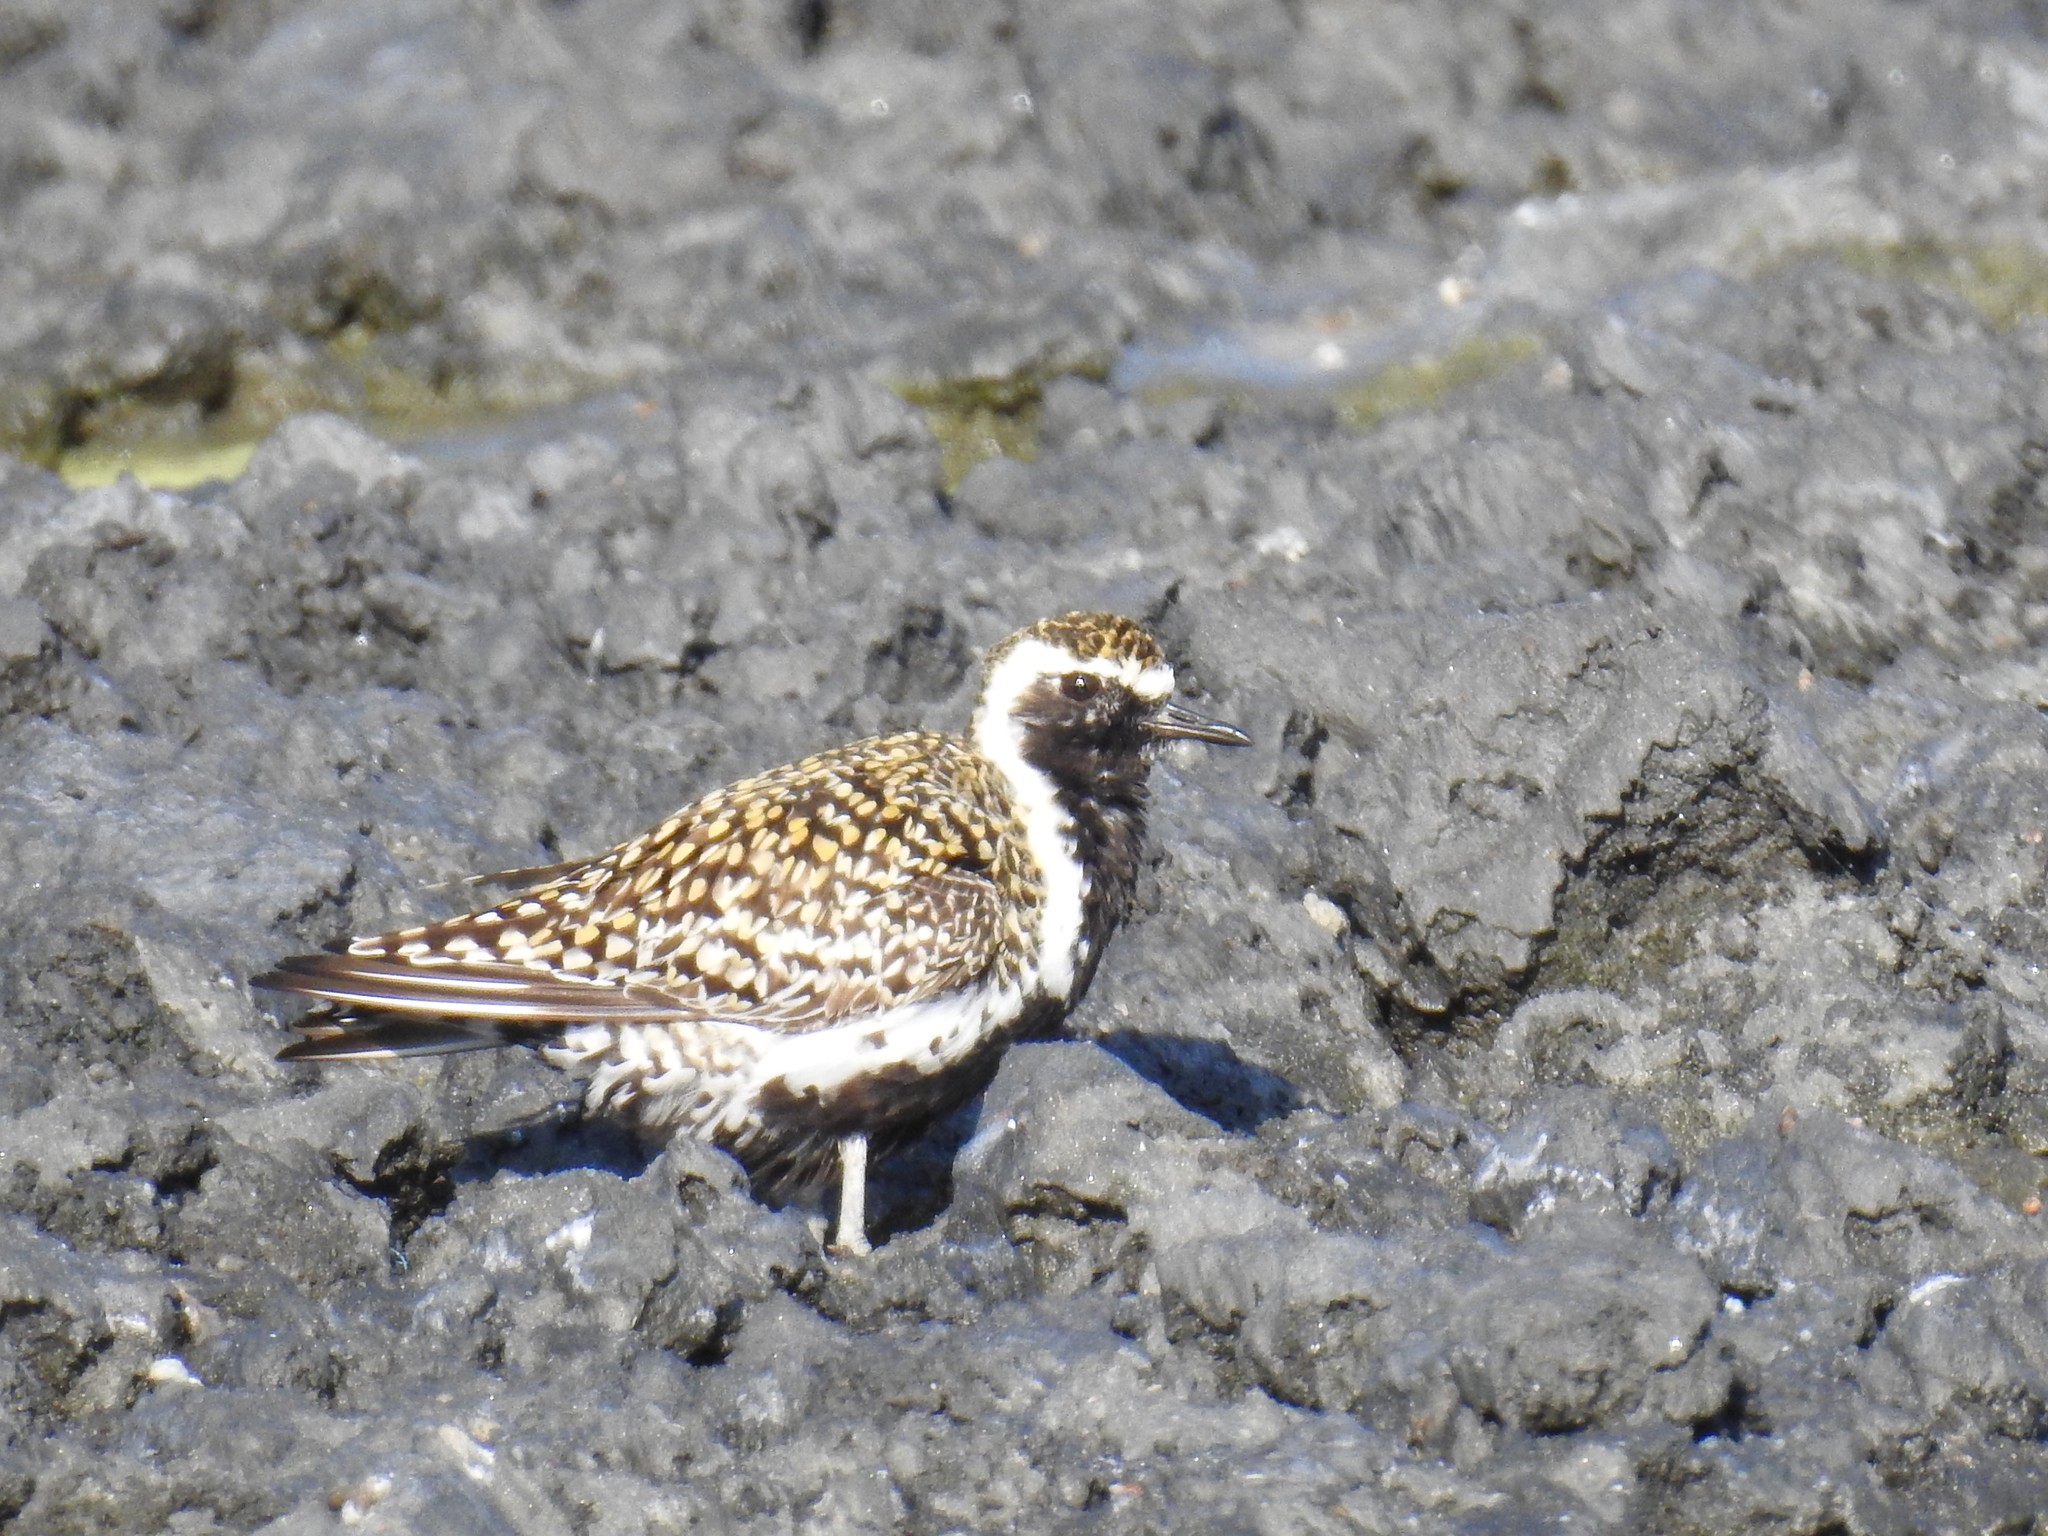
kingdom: Animalia
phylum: Chordata
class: Aves
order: Charadriiformes
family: Charadriidae
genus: Pluvialis
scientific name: Pluvialis fulva
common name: Pacific golden plover
